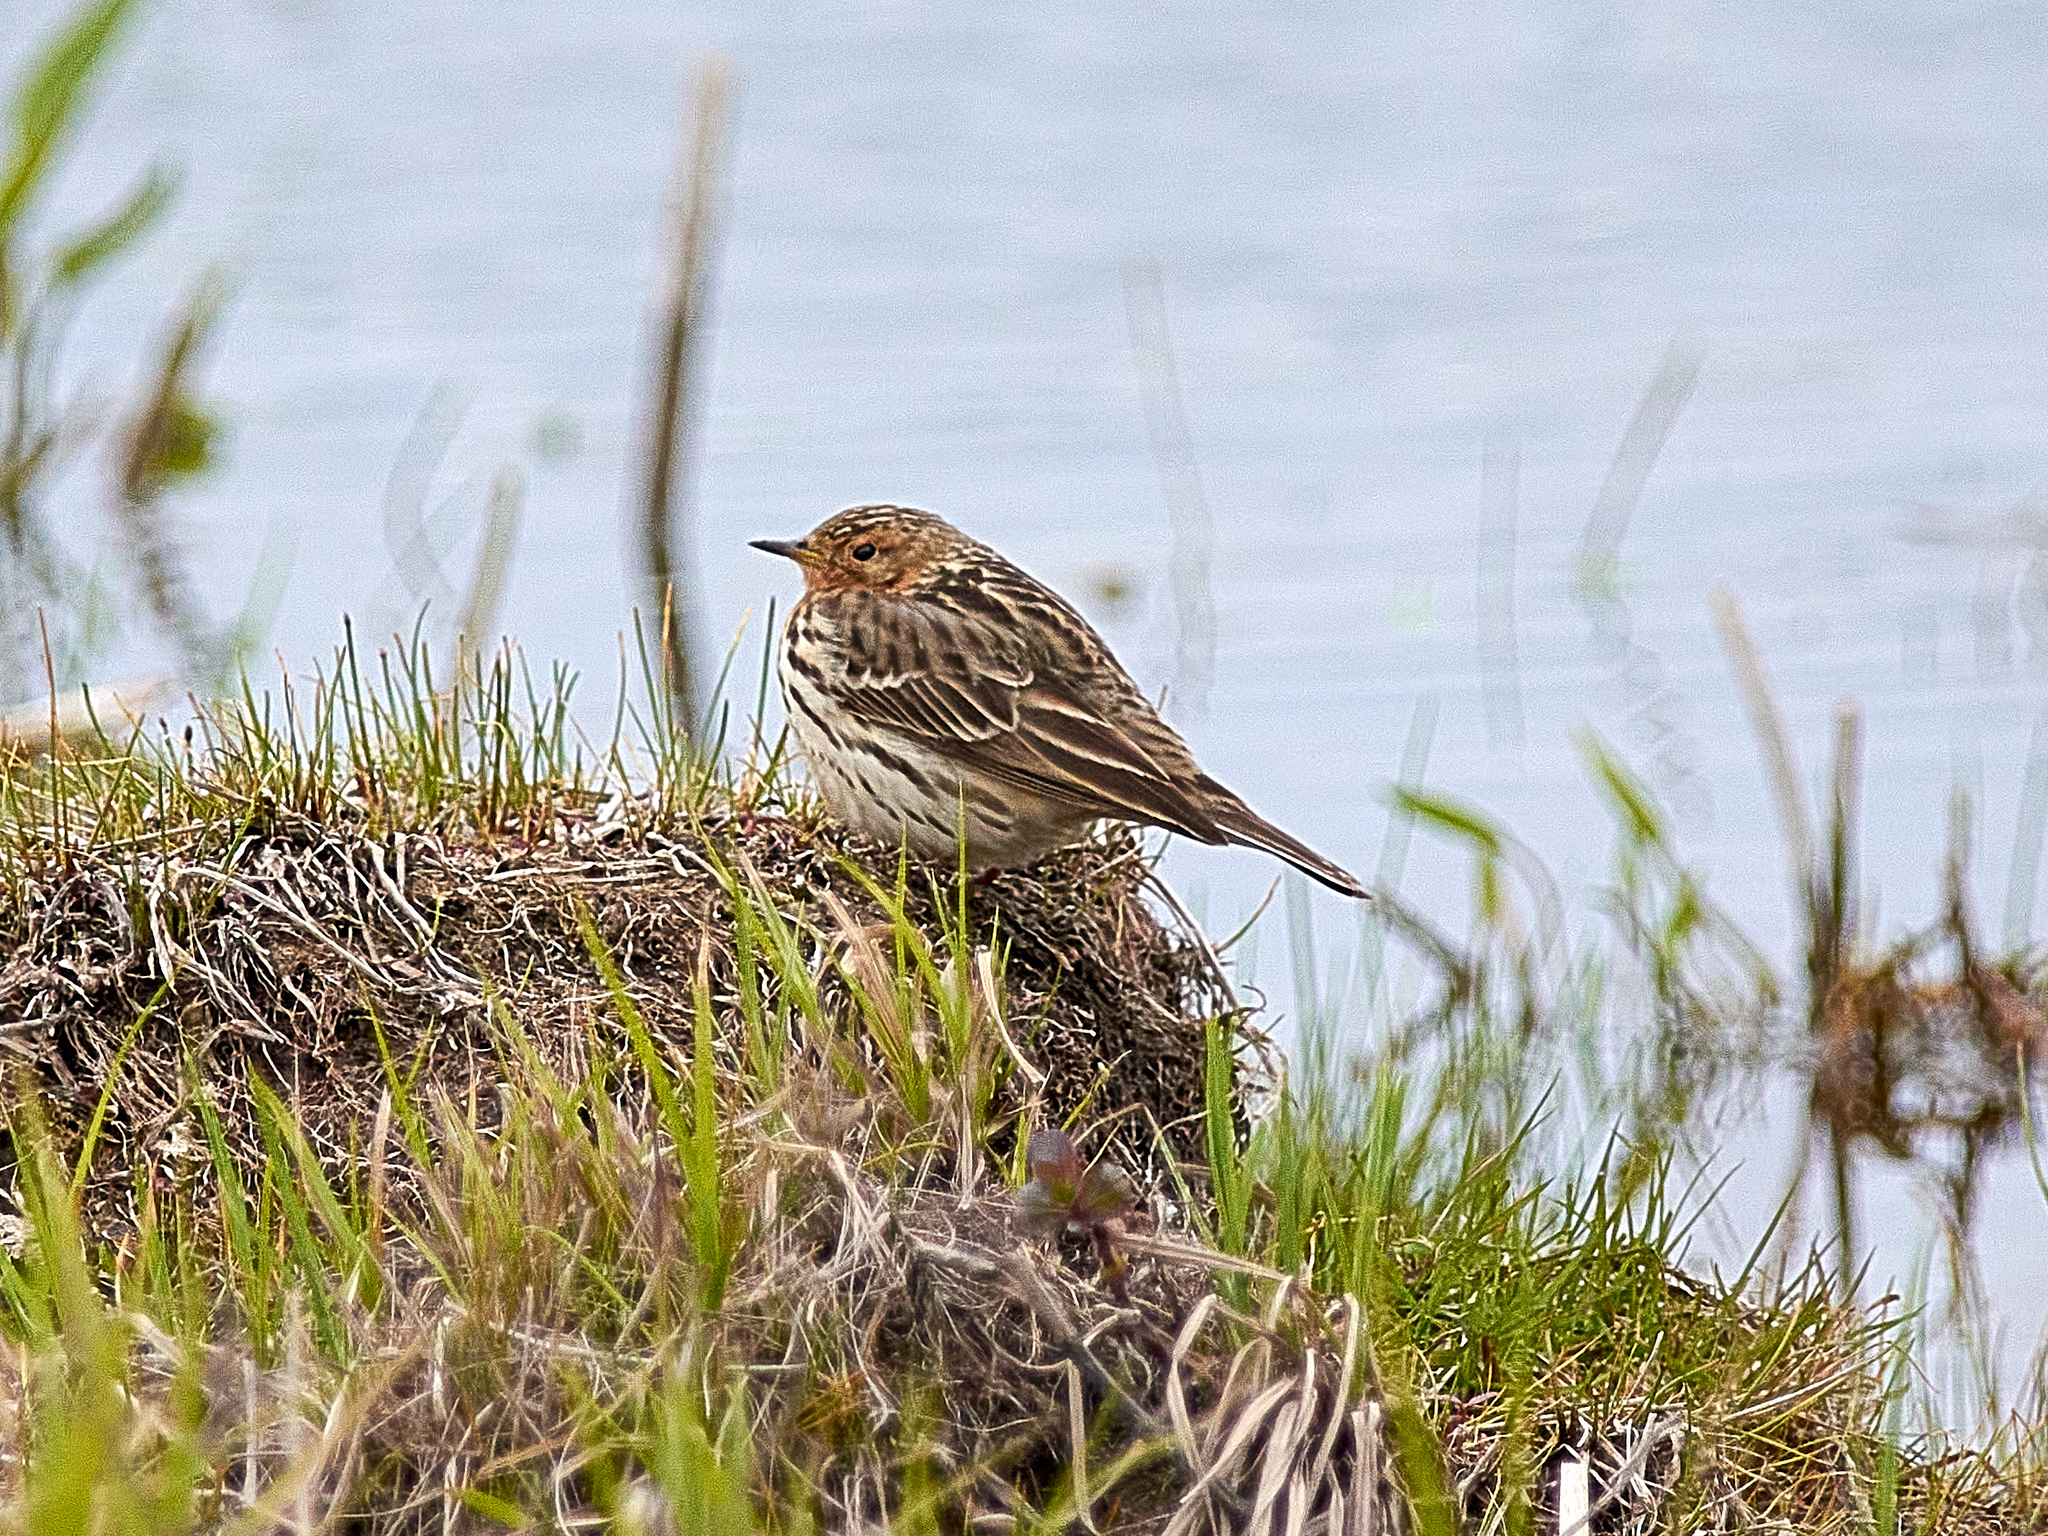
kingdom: Animalia
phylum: Chordata
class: Aves
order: Passeriformes
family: Motacillidae
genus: Anthus
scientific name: Anthus cervinus
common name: Red-throated pipit
